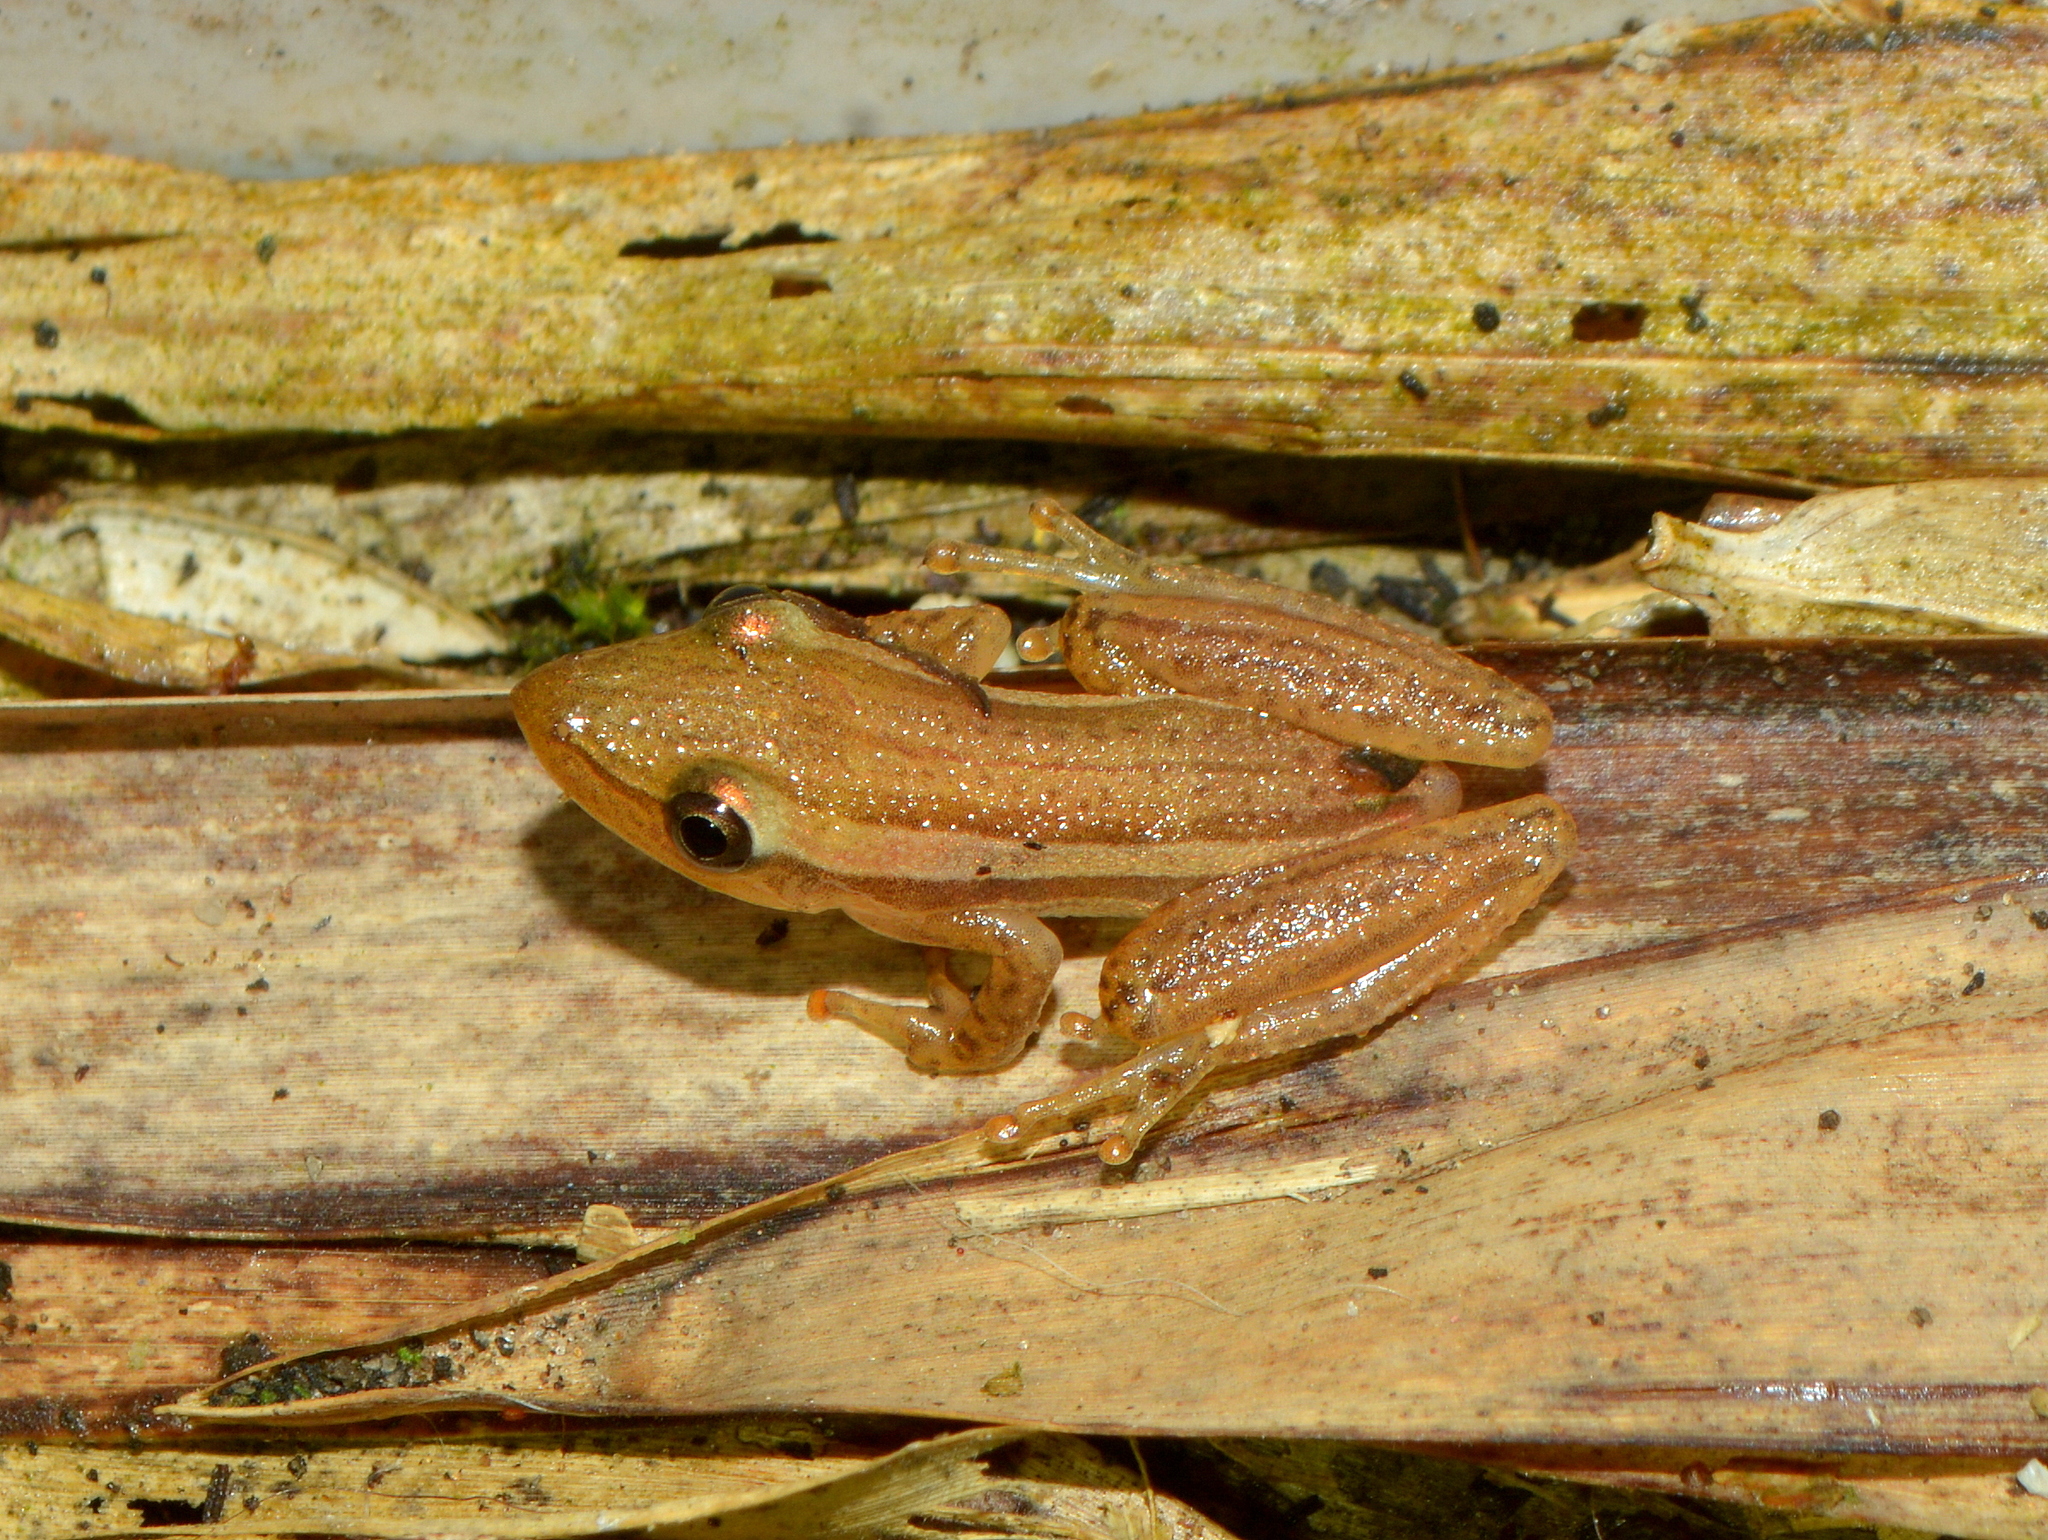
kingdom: Animalia
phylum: Chordata
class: Amphibia
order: Anura
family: Hylidae
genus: Scinax
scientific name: Scinax squalirostris
